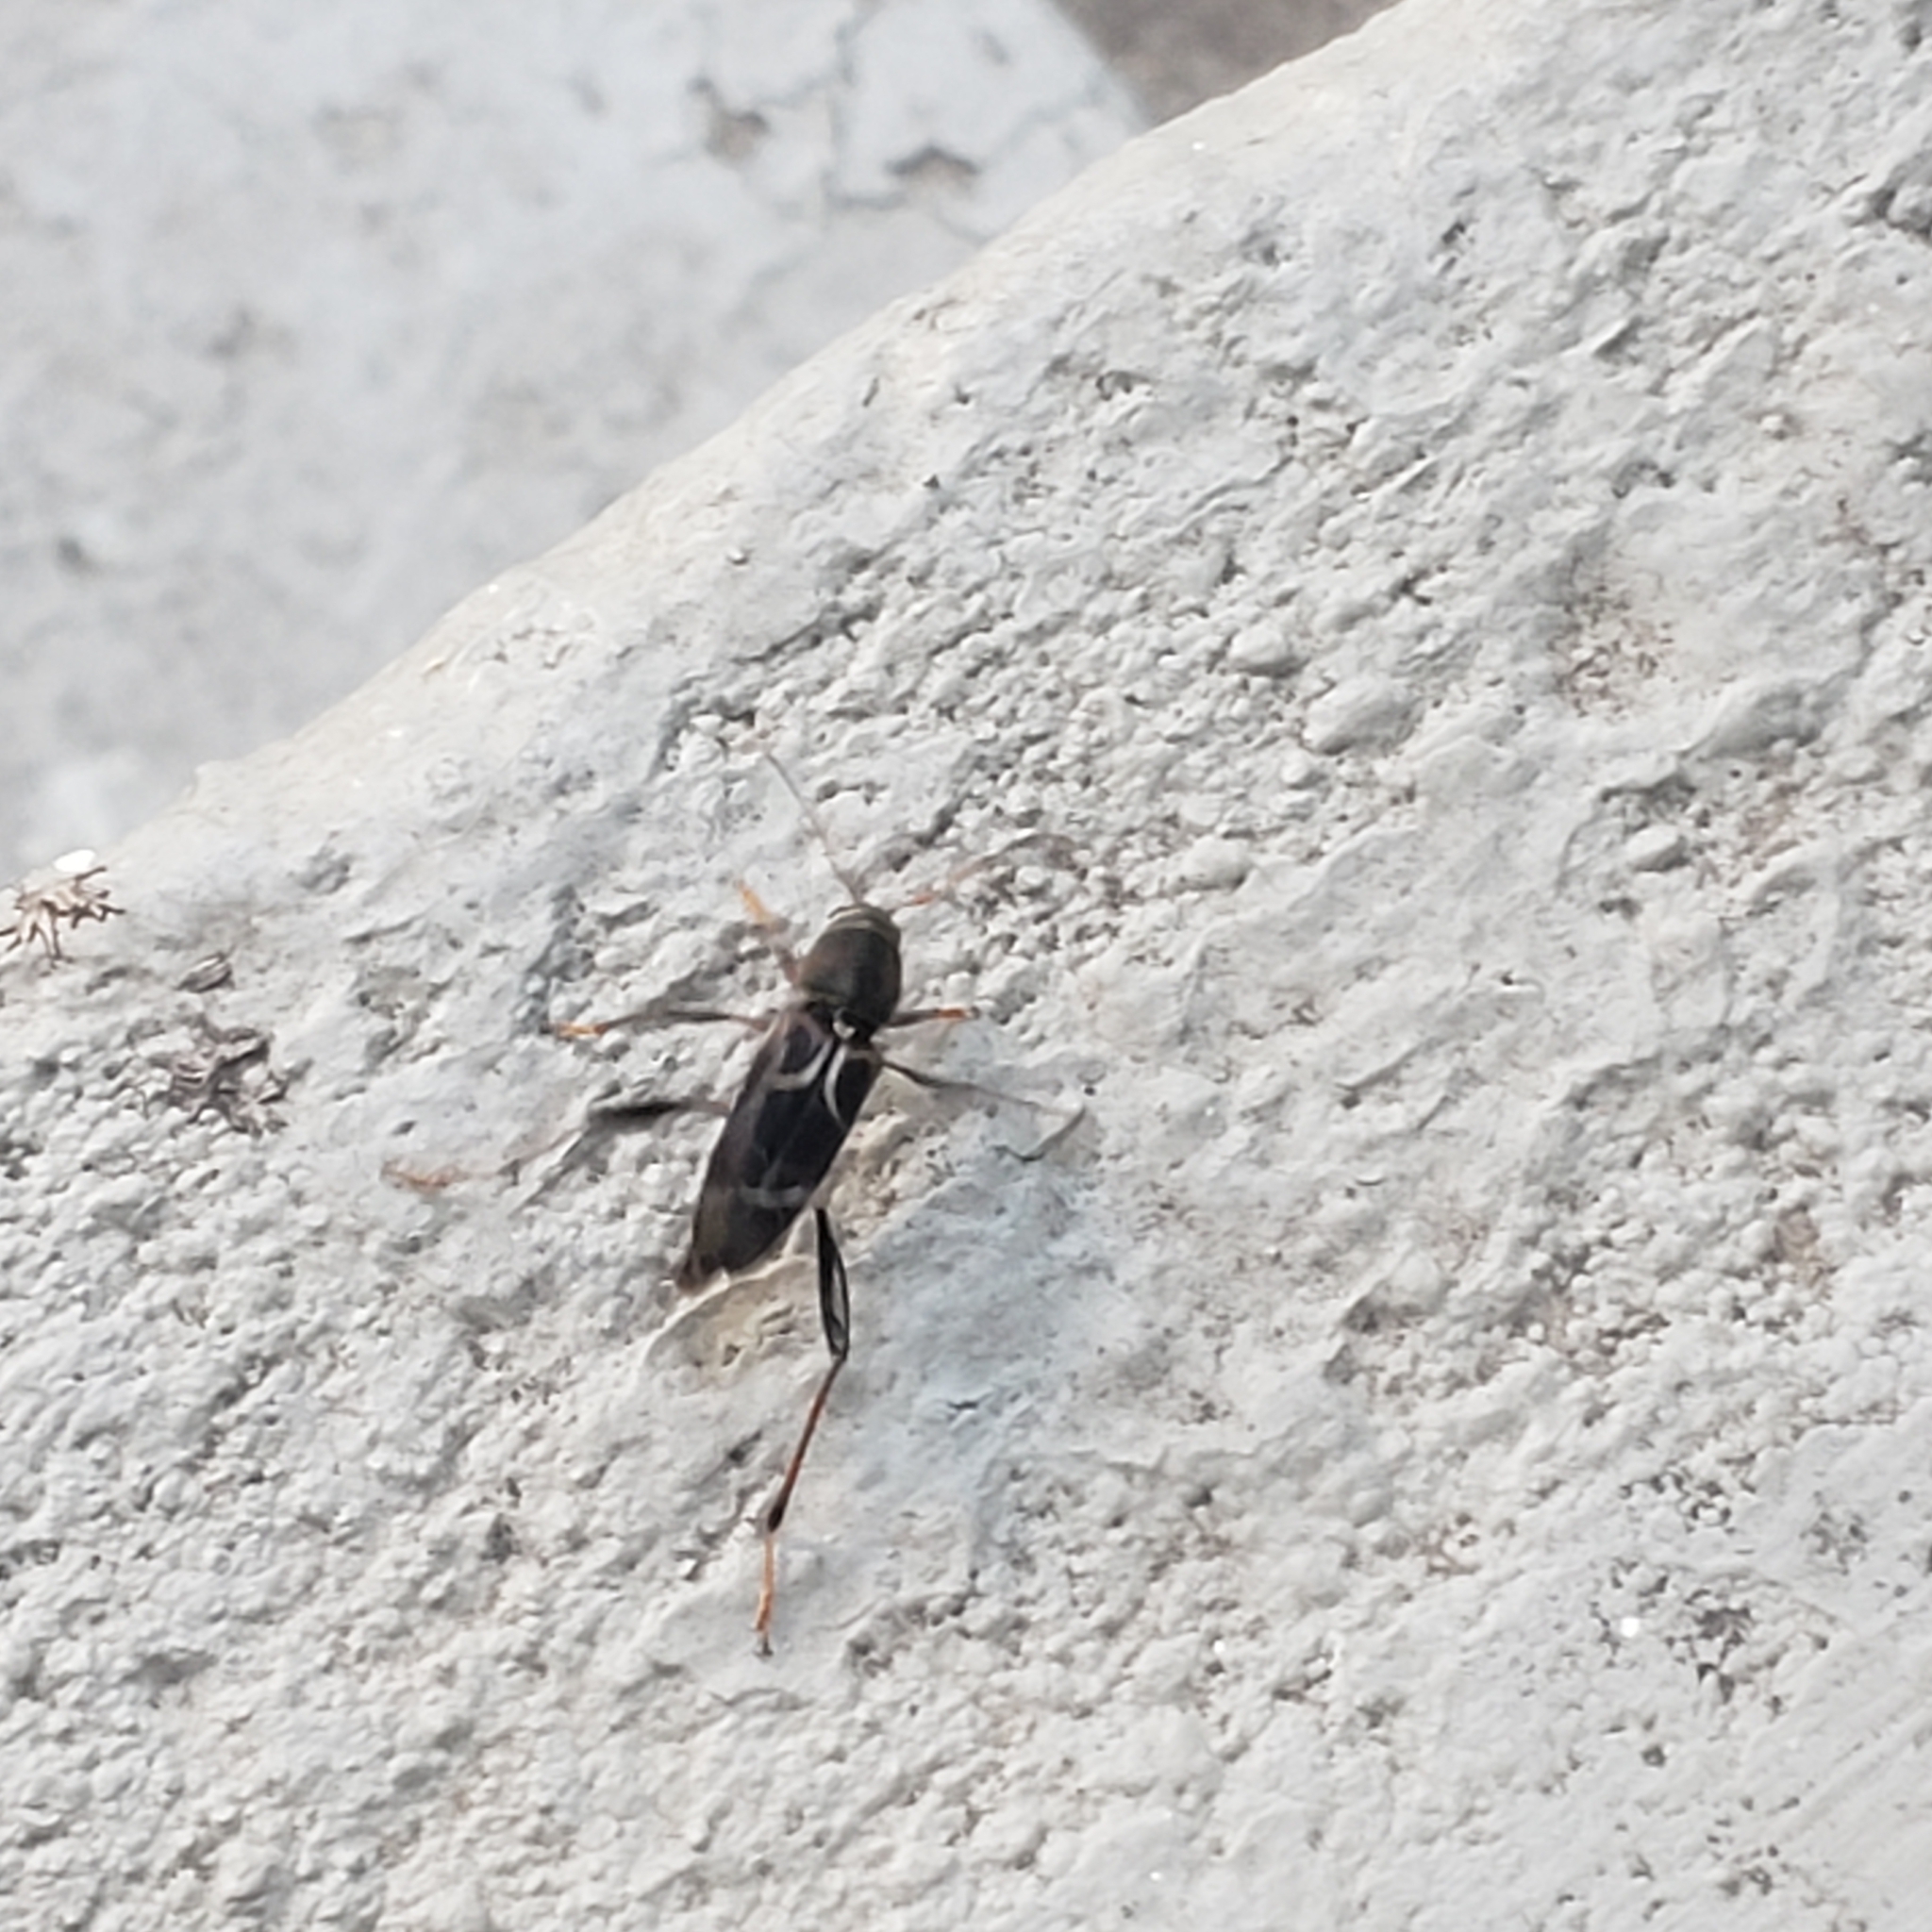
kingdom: Animalia
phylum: Arthropoda
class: Insecta
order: Coleoptera
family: Cerambycidae
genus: Neoclytus
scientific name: Neoclytus mucronatus
